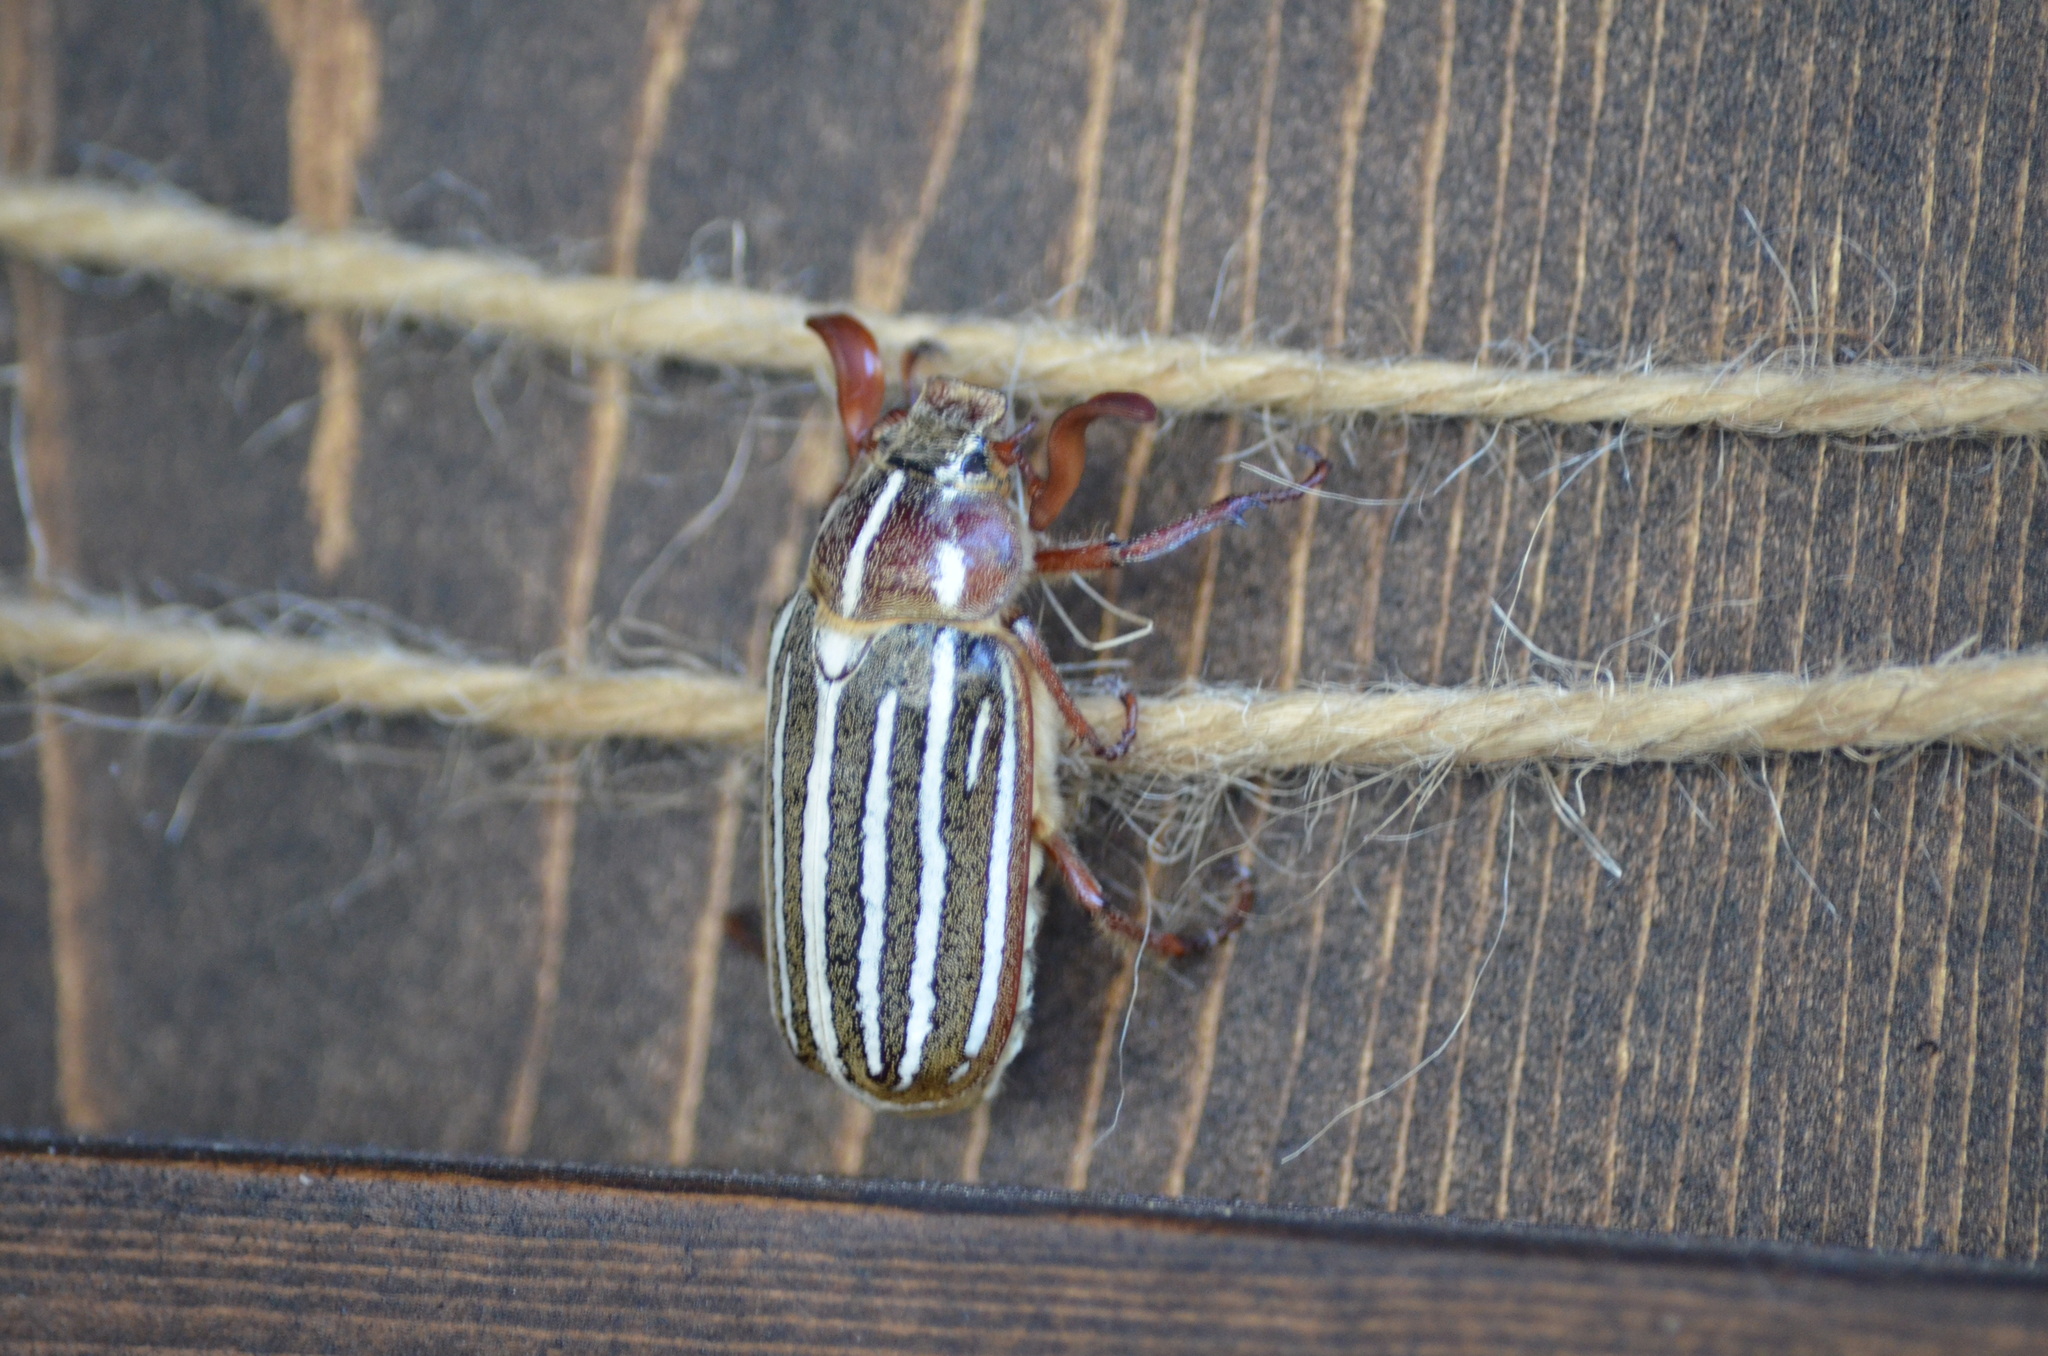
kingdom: Animalia
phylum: Arthropoda
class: Insecta
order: Coleoptera
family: Scarabaeidae
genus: Polyphylla
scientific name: Polyphylla crinita
